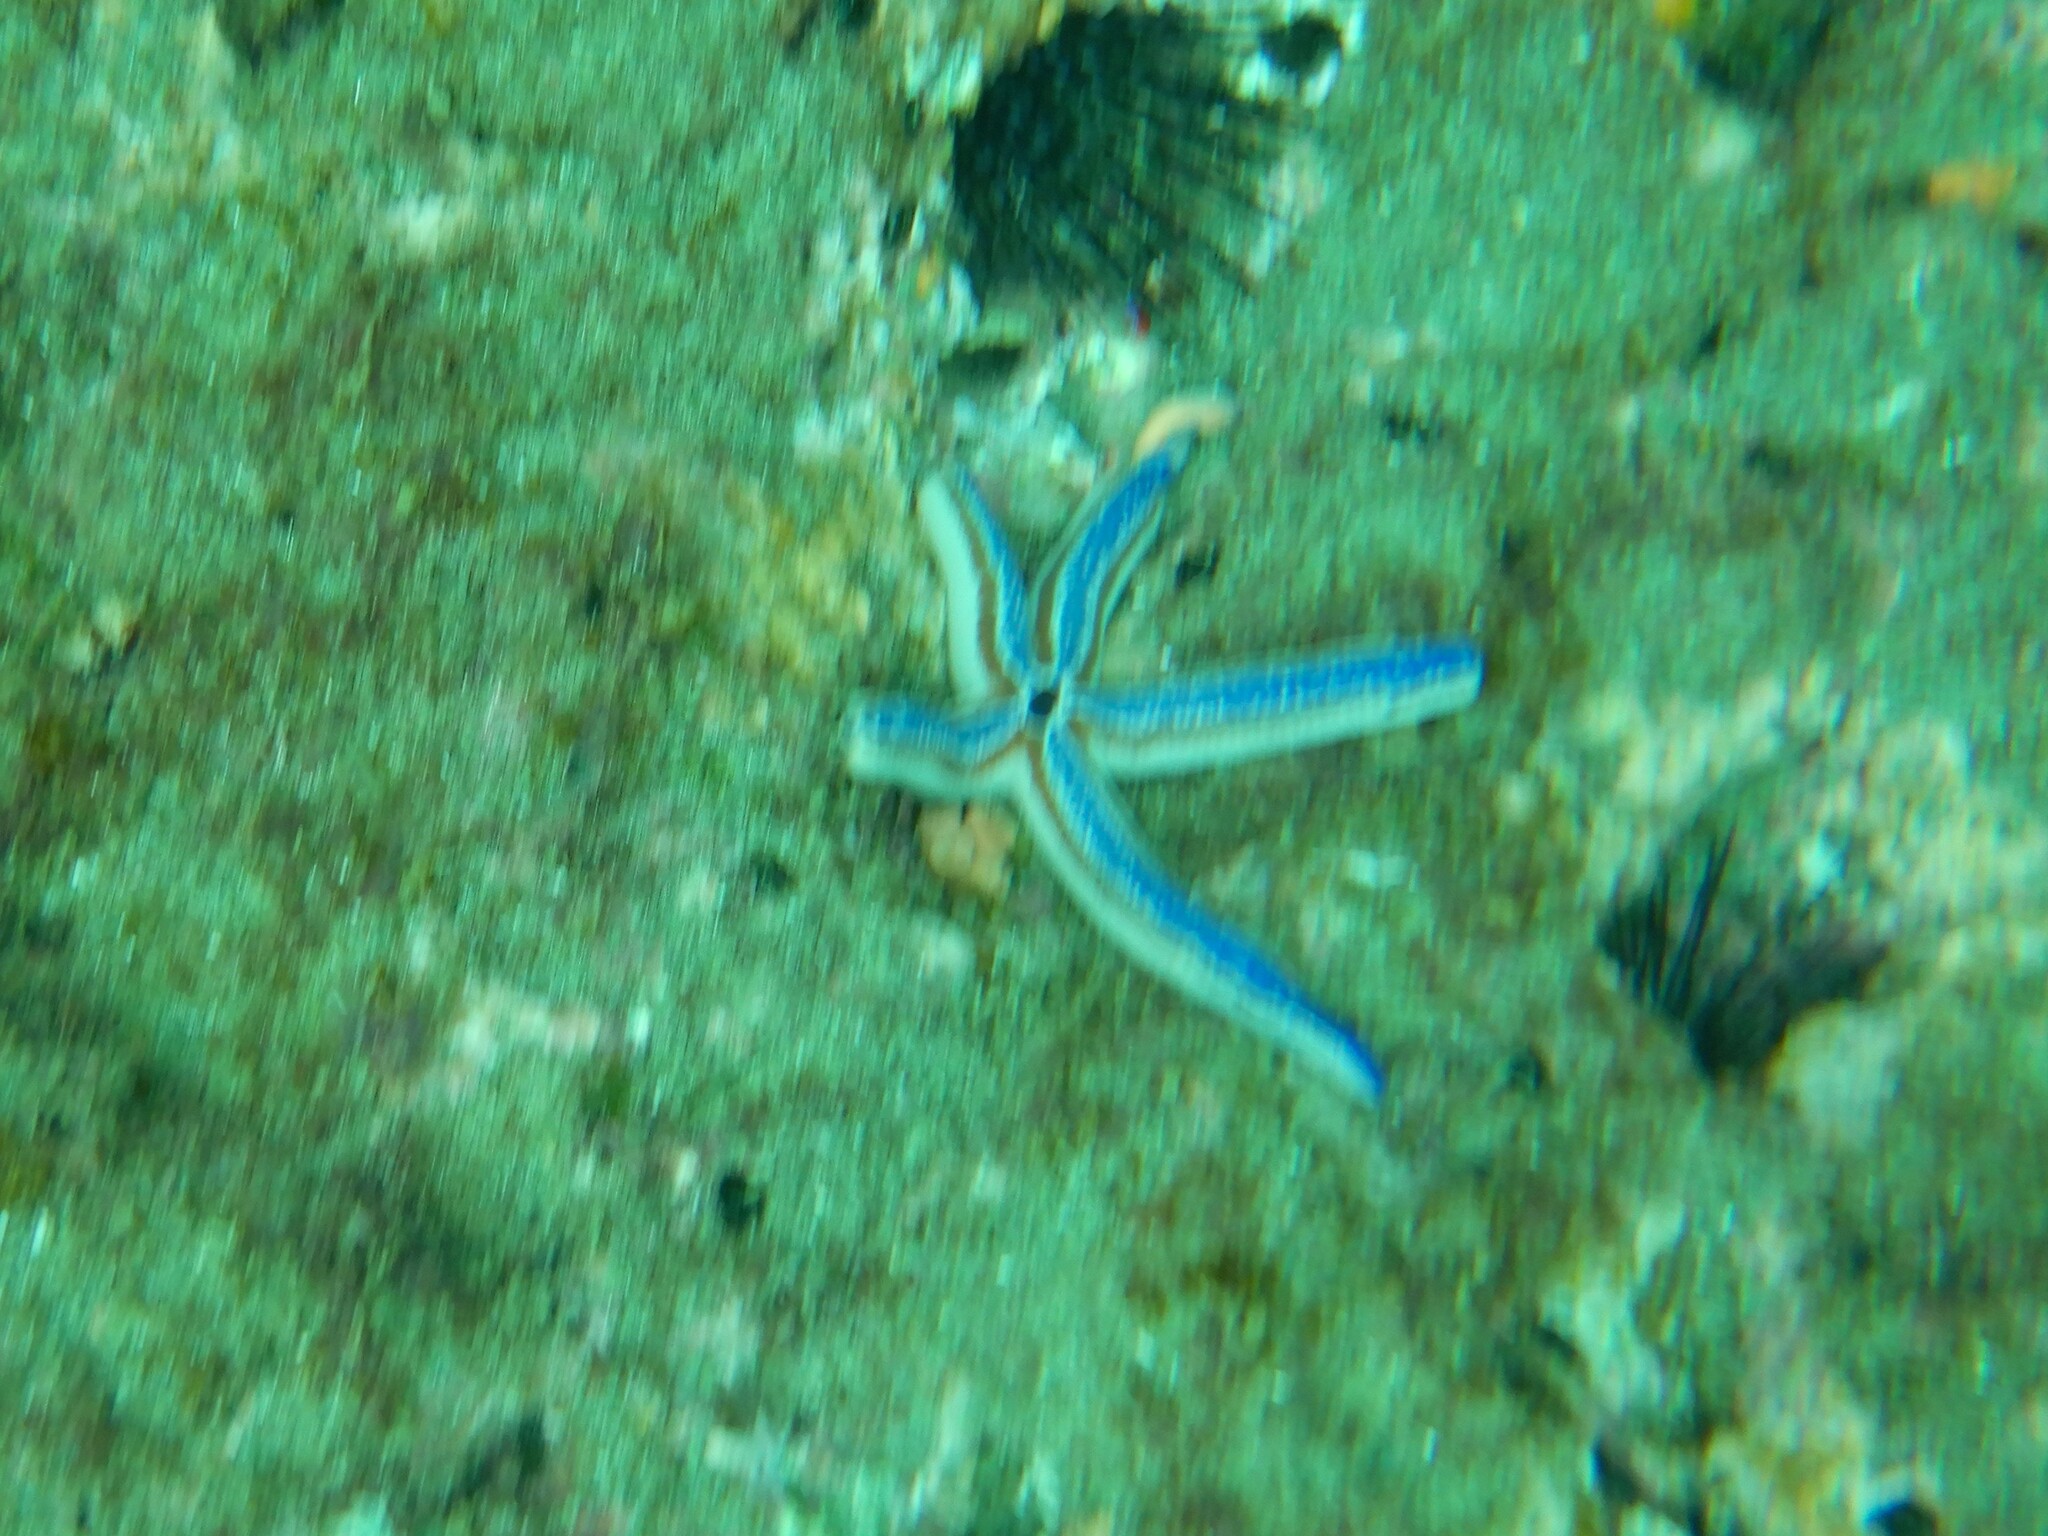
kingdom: Animalia
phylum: Echinodermata
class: Asteroidea
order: Valvatida
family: Ophidiasteridae
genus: Phataria
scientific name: Phataria unifascialis
